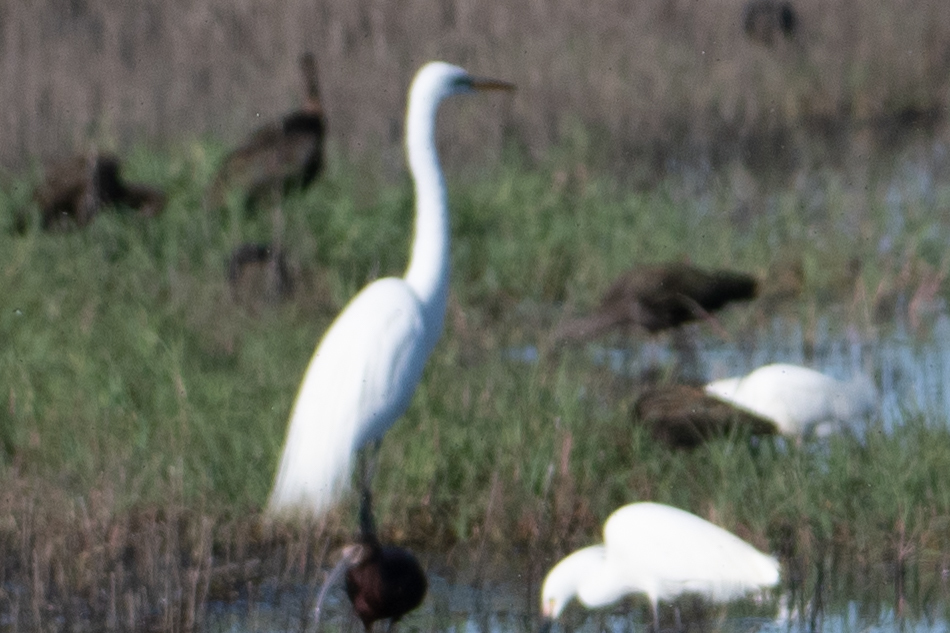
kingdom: Animalia
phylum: Chordata
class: Aves
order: Pelecaniformes
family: Ardeidae
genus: Ardea
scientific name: Ardea alba
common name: Great egret
